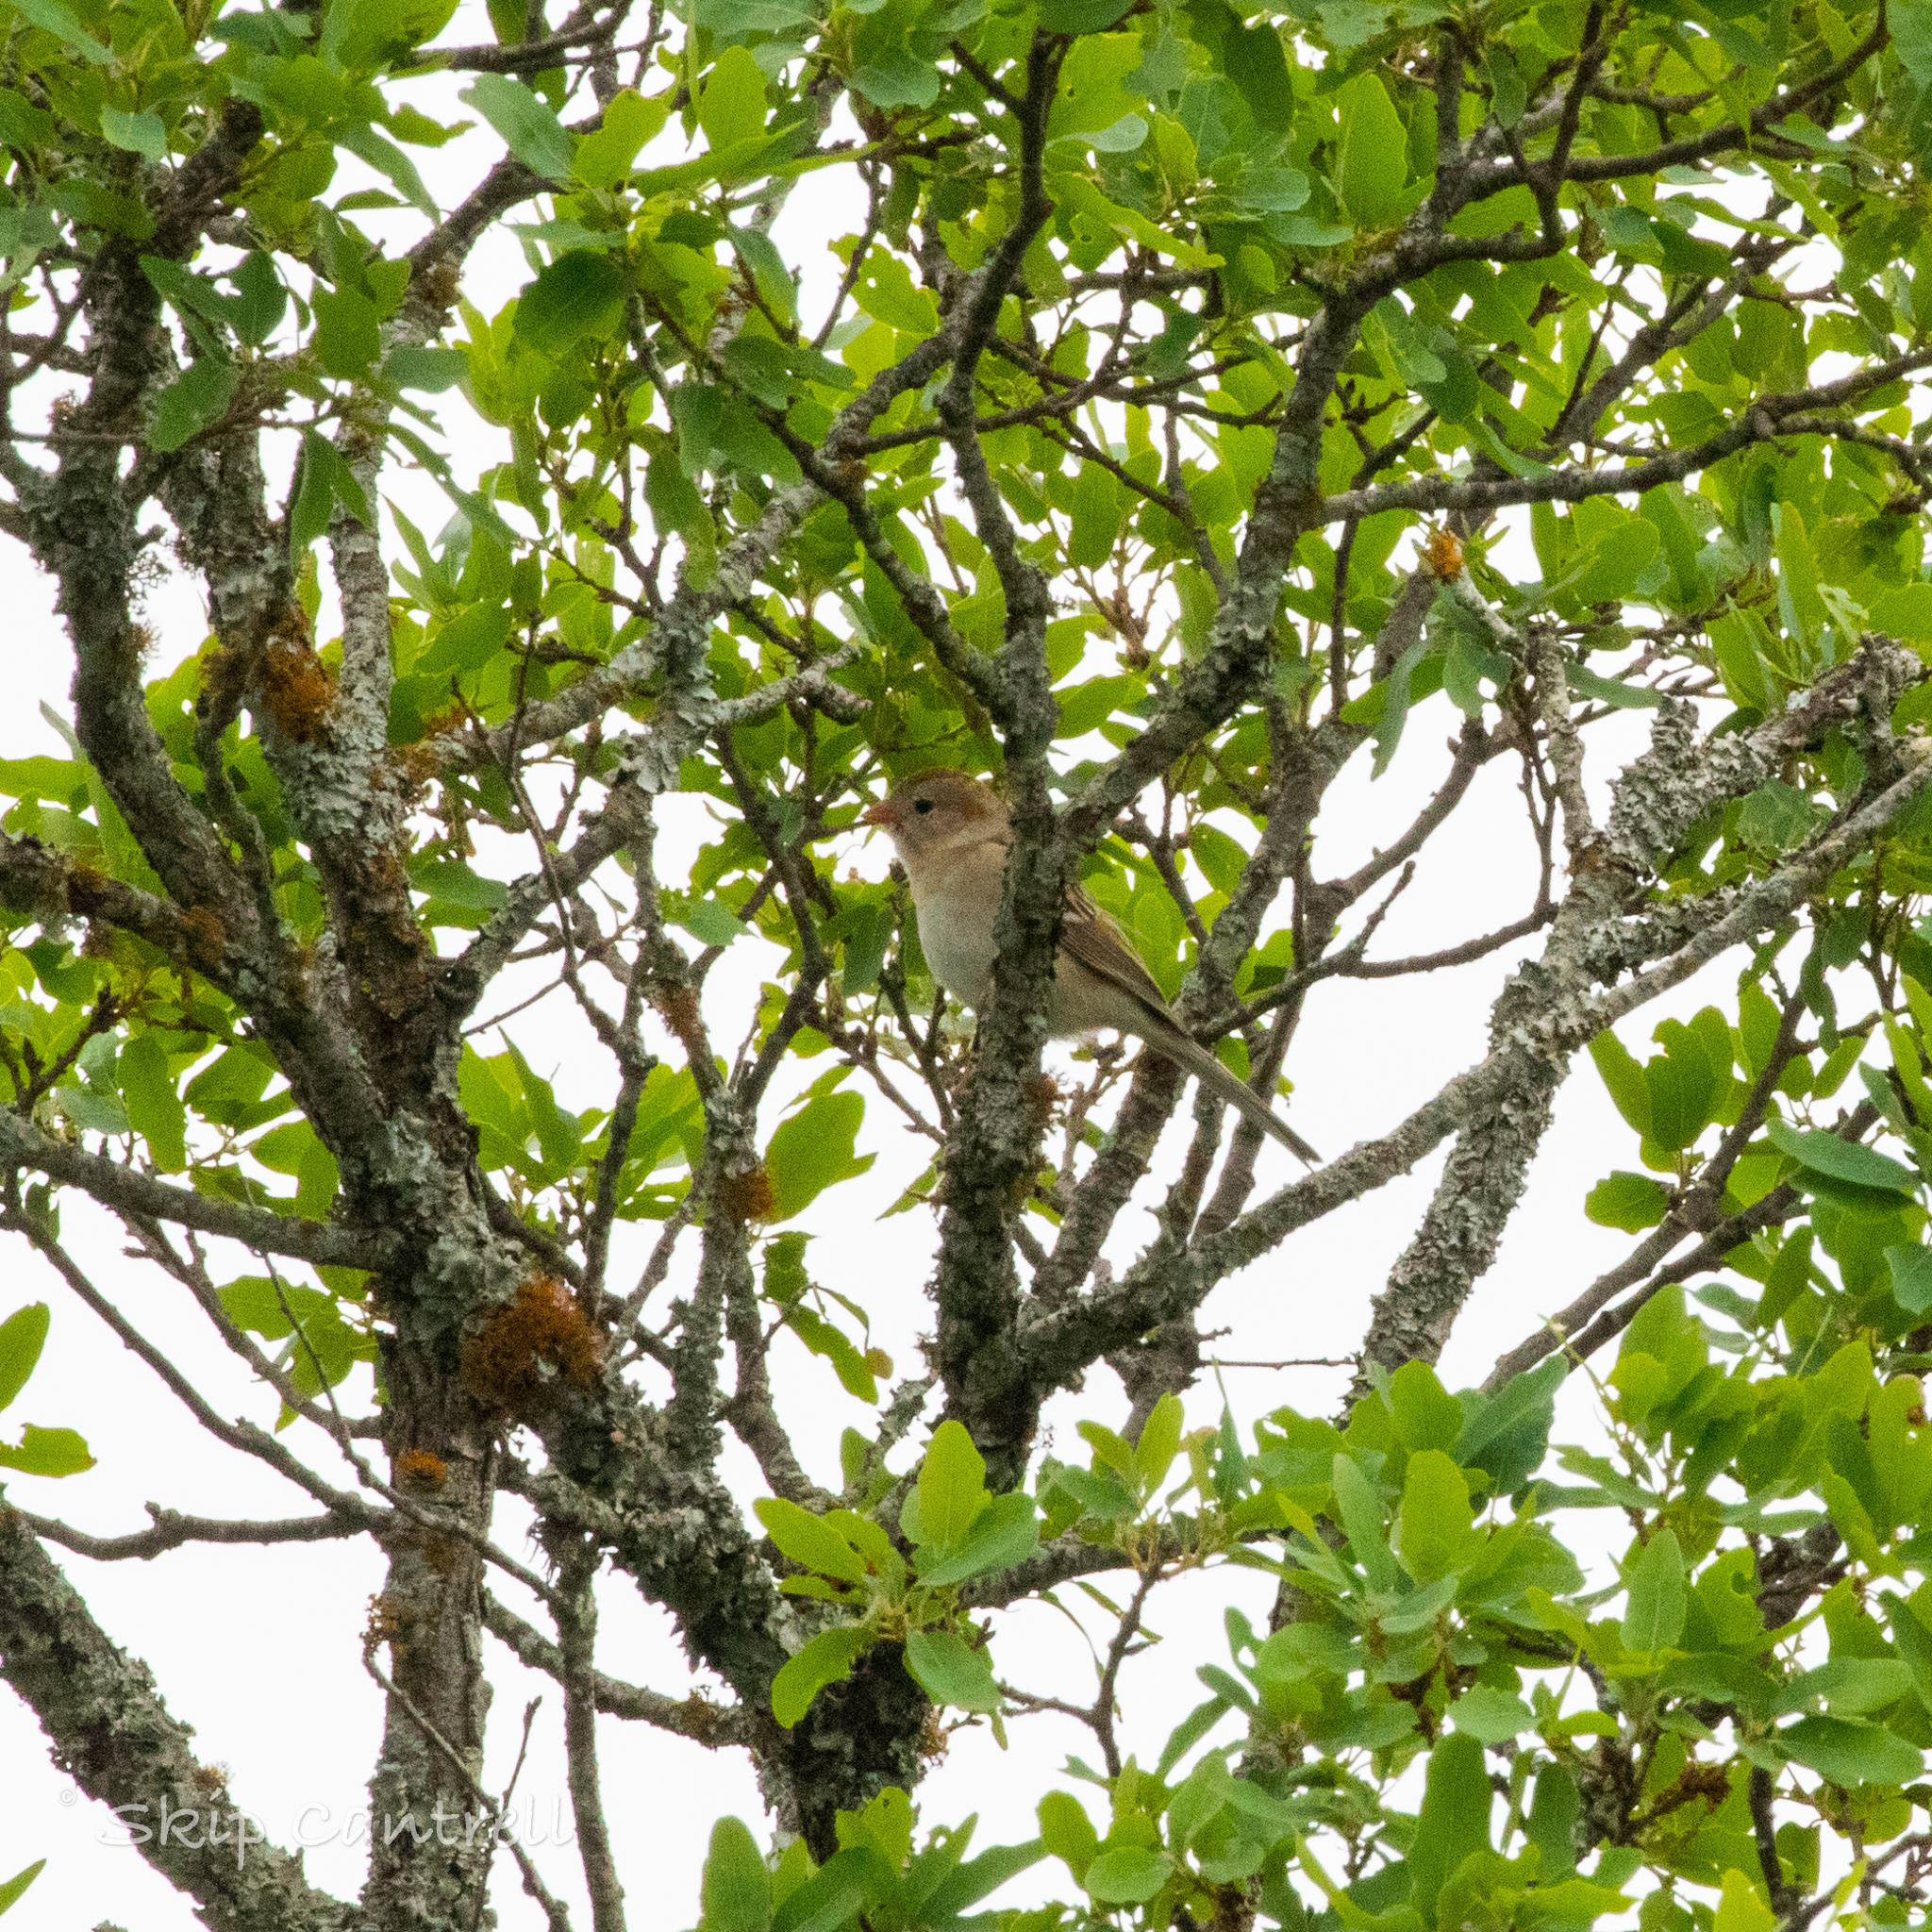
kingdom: Animalia
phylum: Chordata
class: Aves
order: Passeriformes
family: Passerellidae
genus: Spizella
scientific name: Spizella pusilla
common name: Field sparrow
